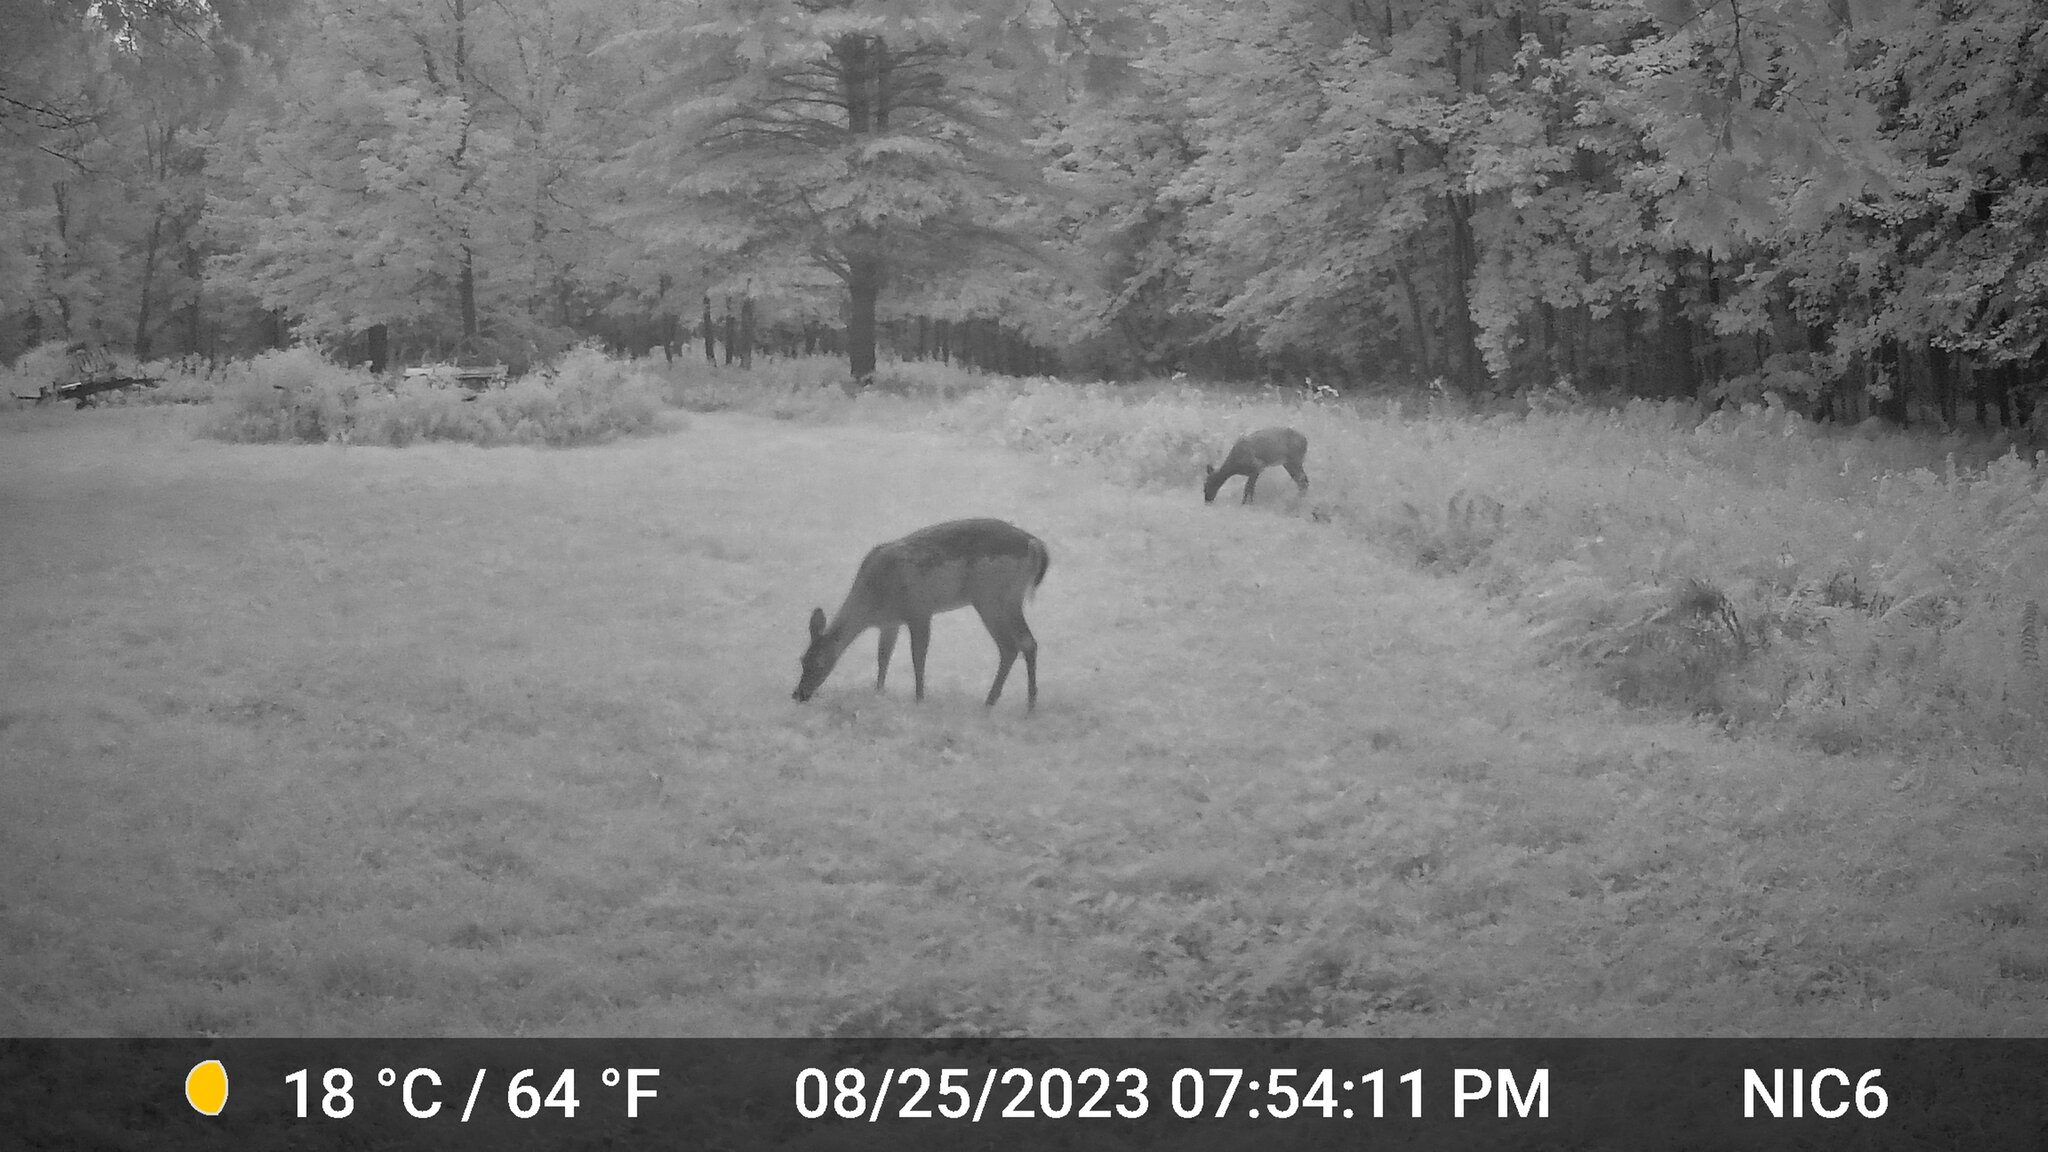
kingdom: Animalia
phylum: Chordata
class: Mammalia
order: Artiodactyla
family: Cervidae
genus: Odocoileus
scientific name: Odocoileus virginianus
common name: White-tailed deer
